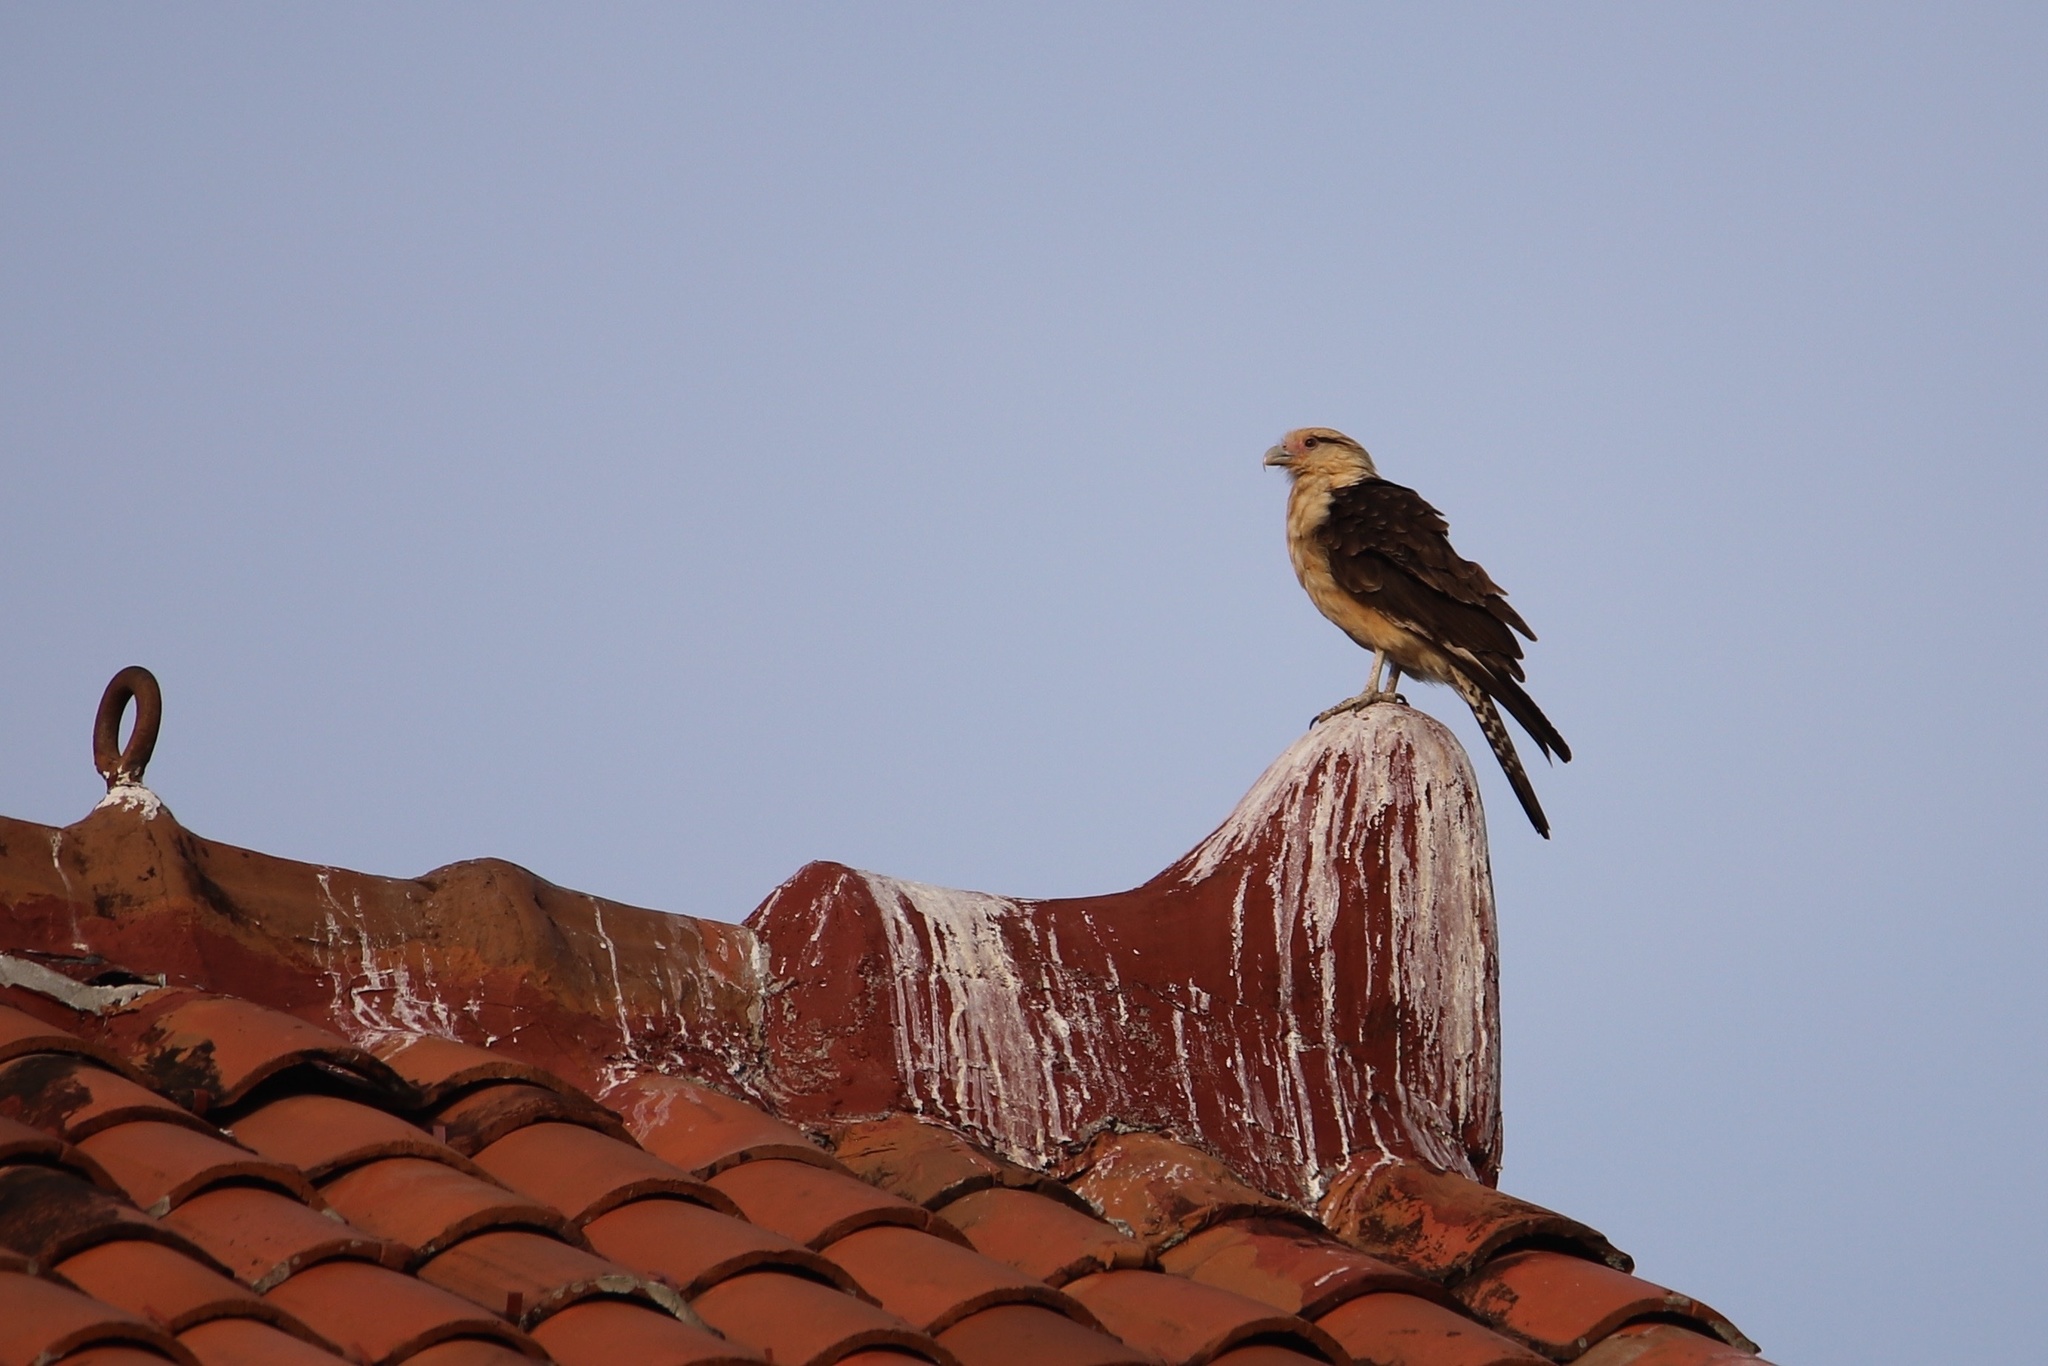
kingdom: Animalia
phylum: Chordata
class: Aves
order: Falconiformes
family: Falconidae
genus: Daptrius
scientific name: Daptrius
